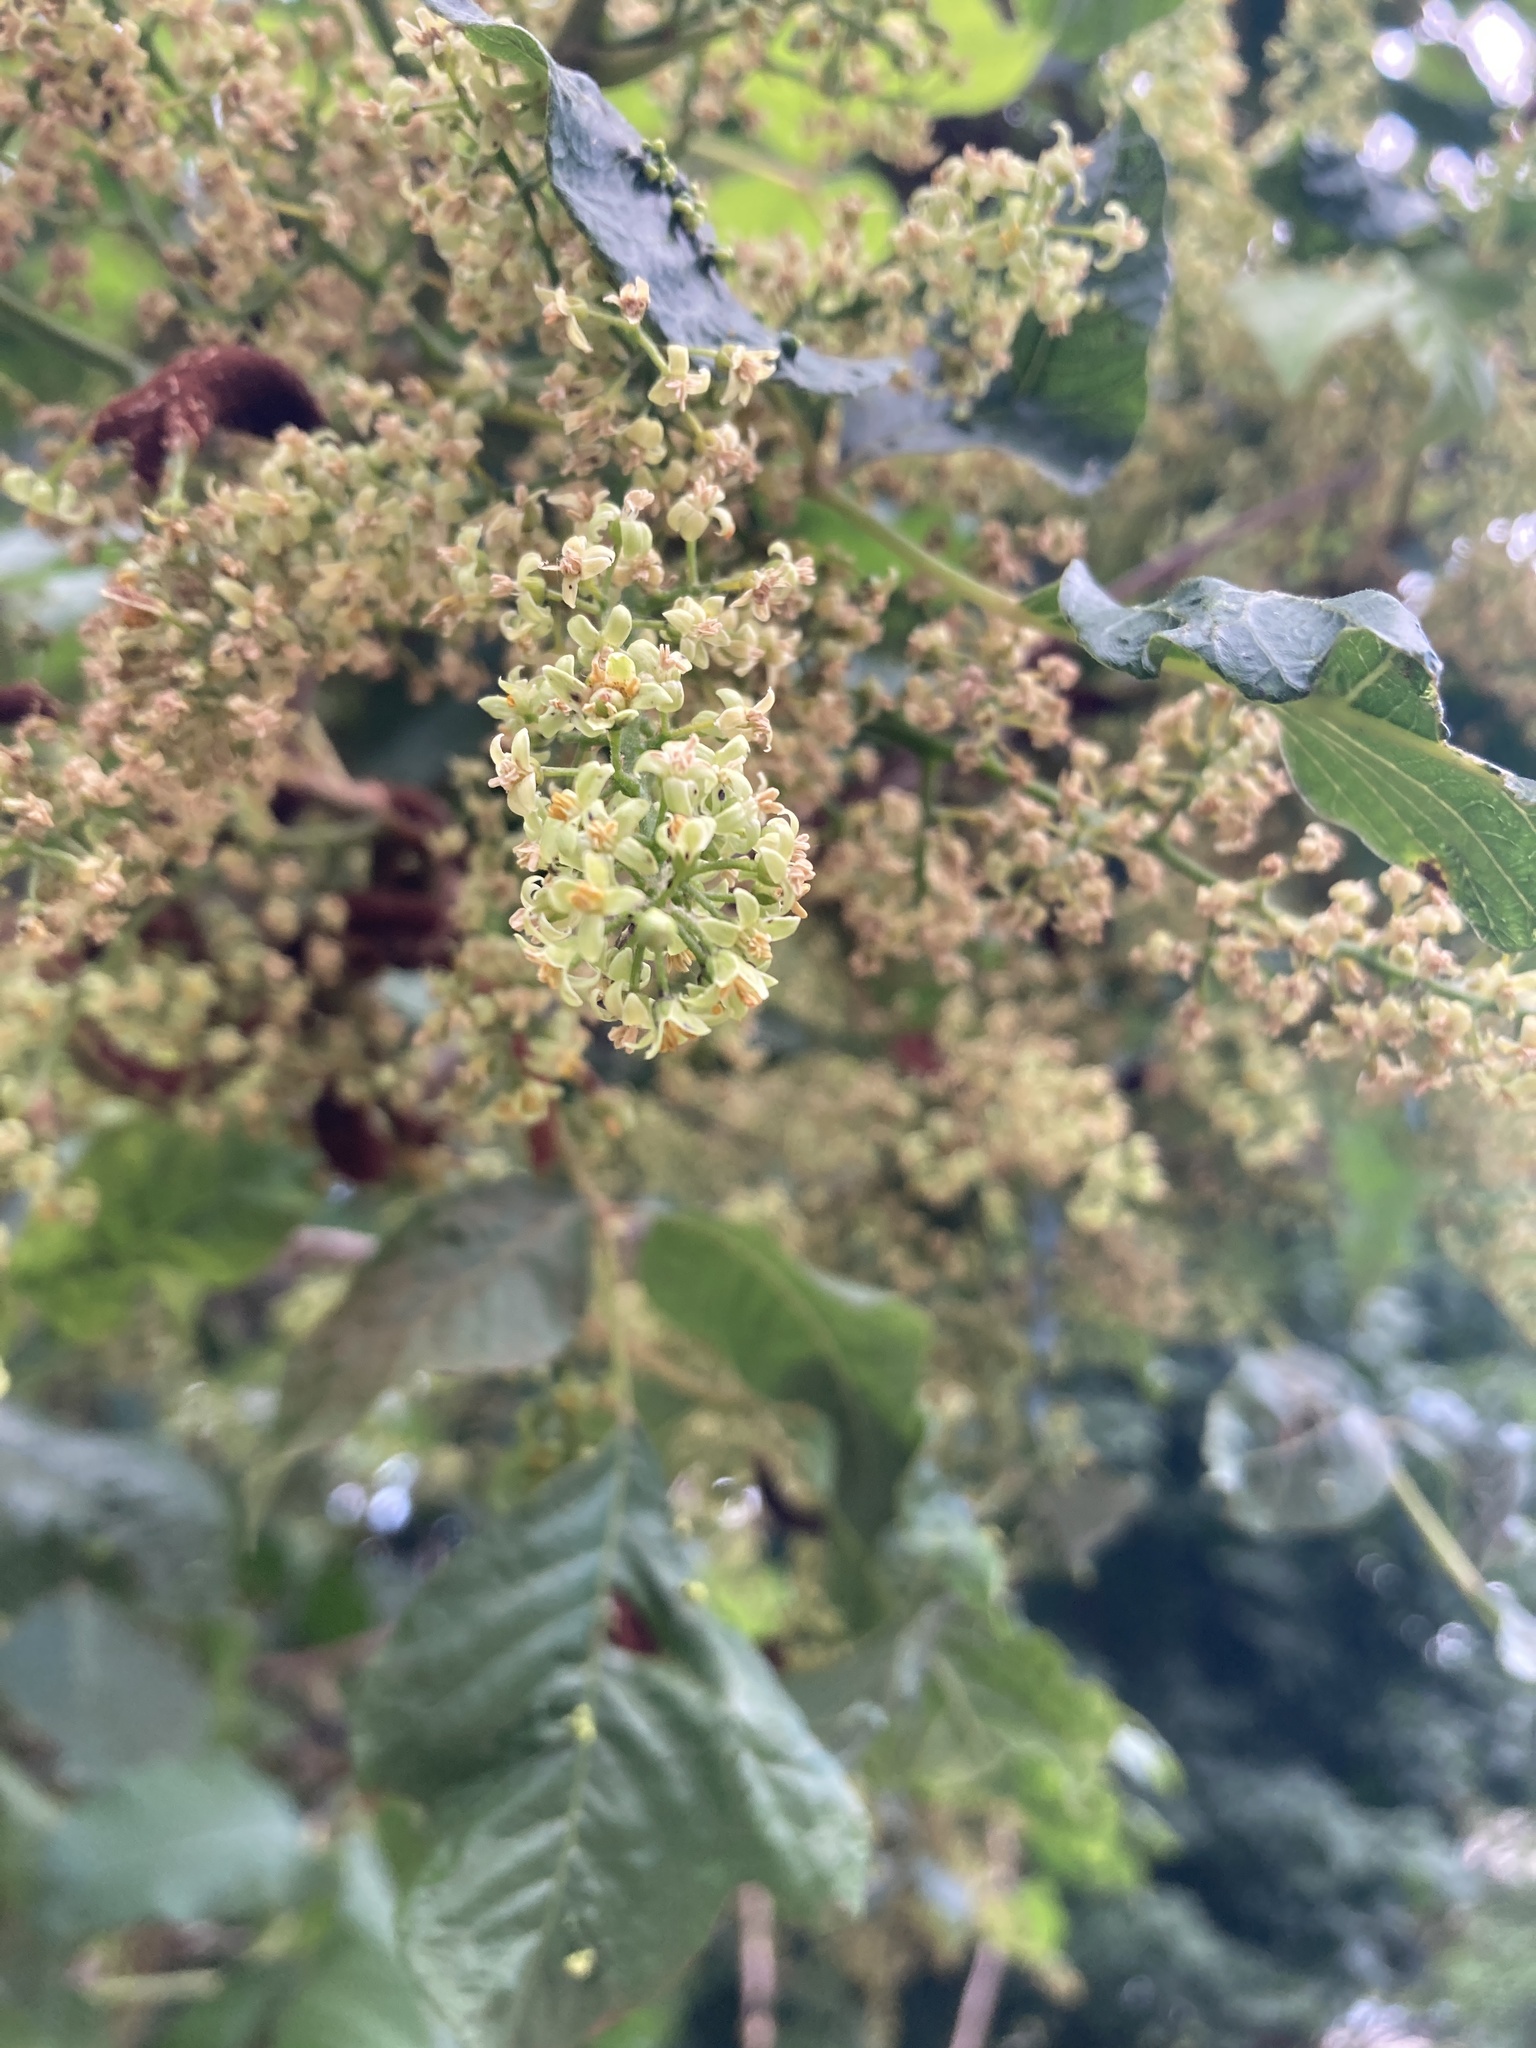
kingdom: Plantae
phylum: Tracheophyta
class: Magnoliopsida
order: Sapindales
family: Anacardiaceae
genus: Toxicodendron
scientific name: Toxicodendron radicans
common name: Poison ivy
